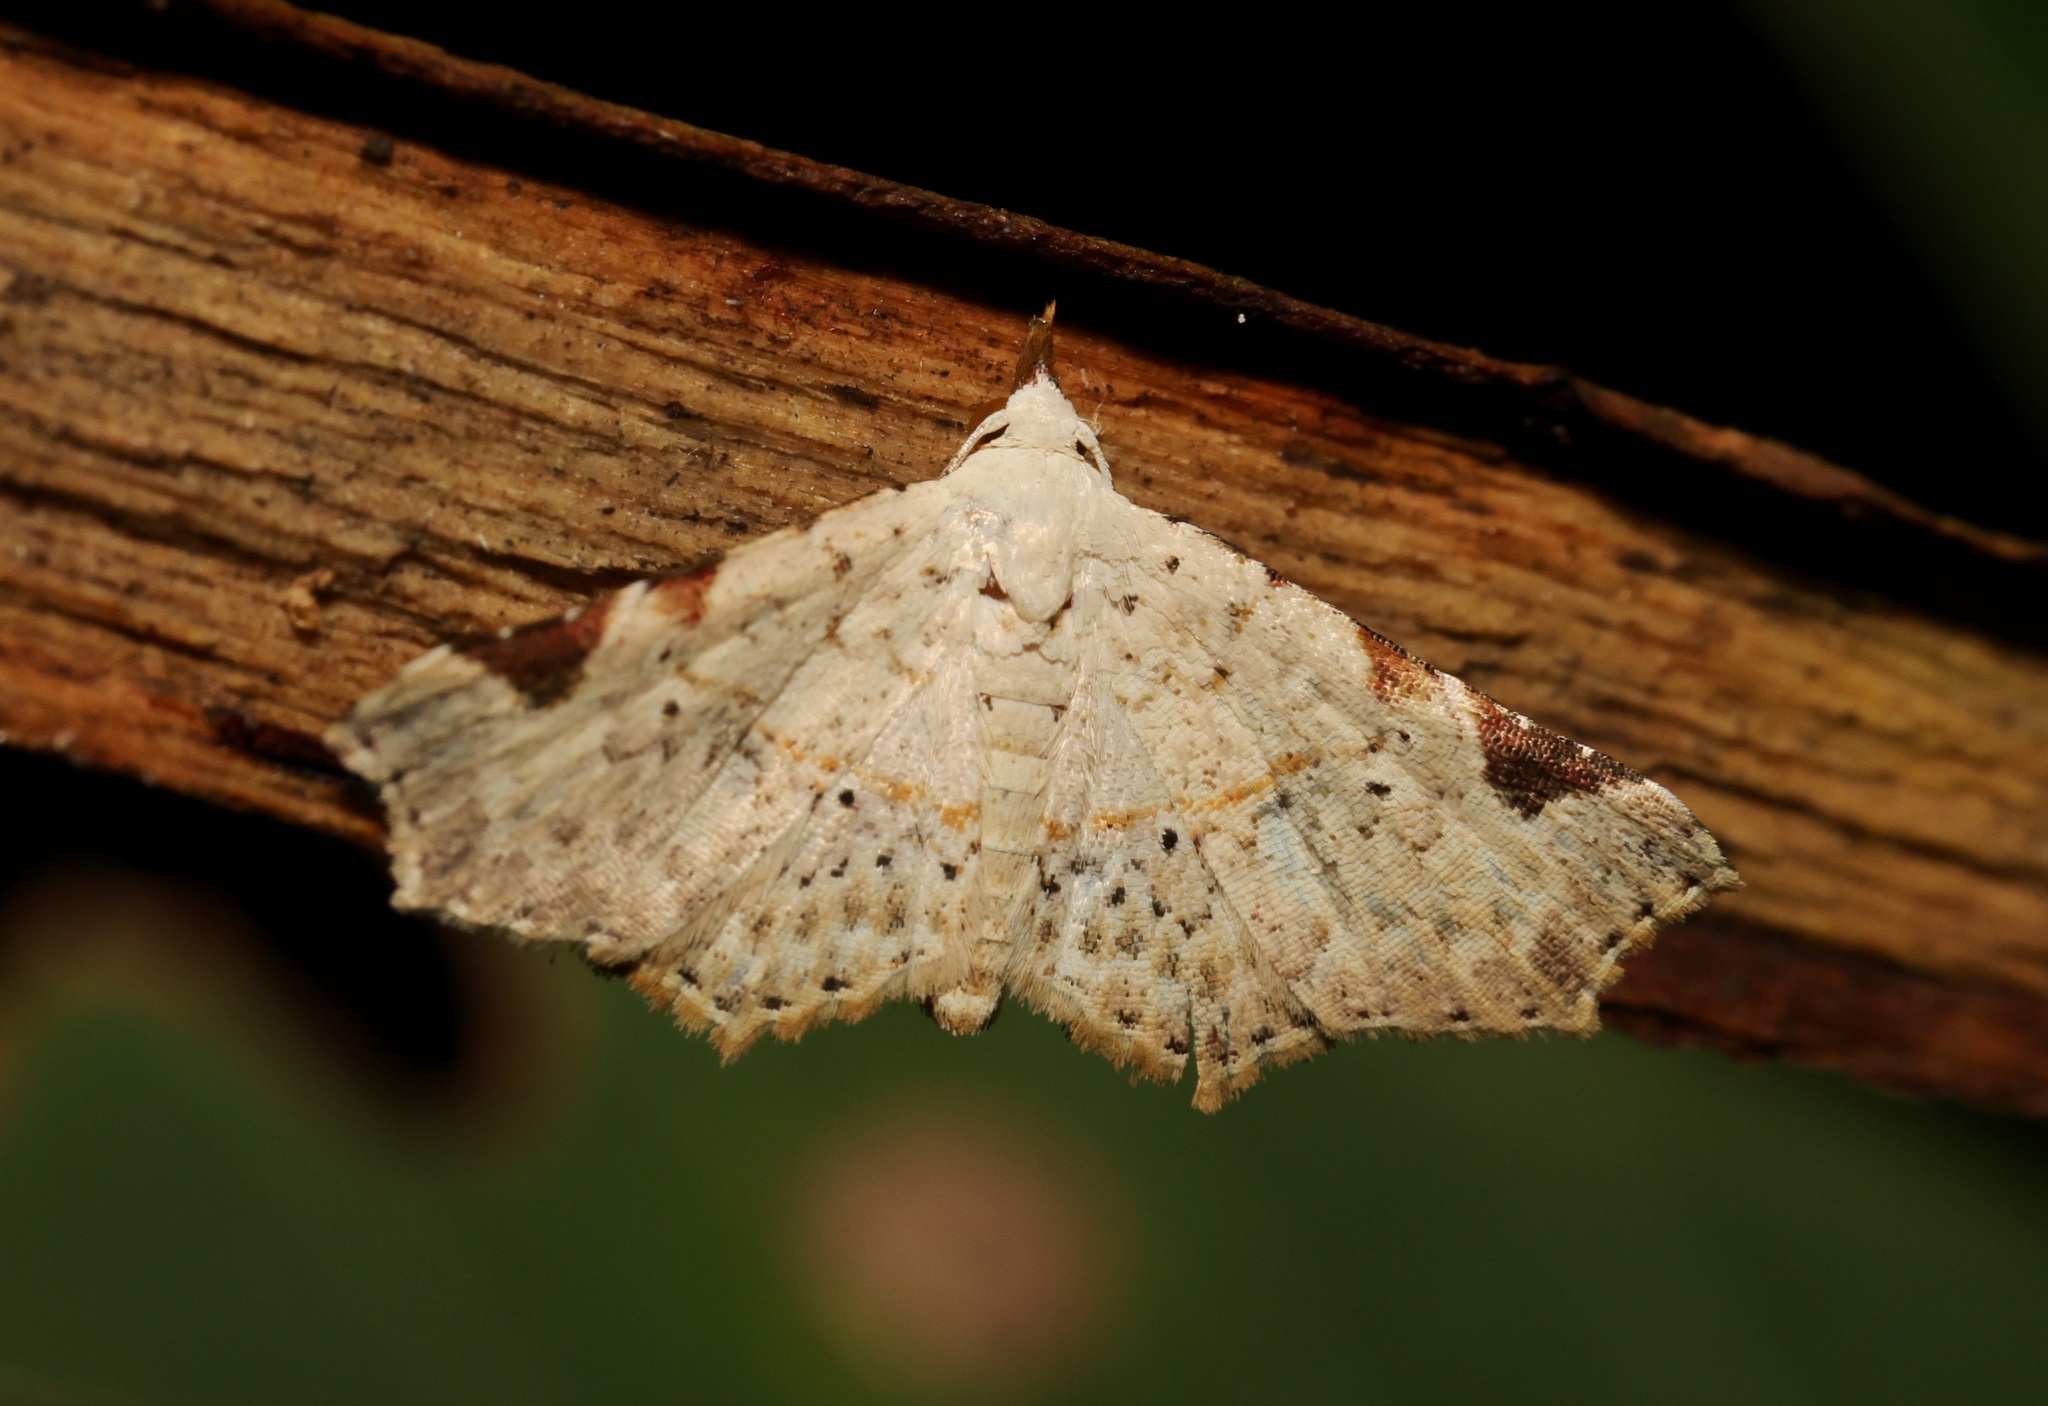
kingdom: Animalia
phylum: Arthropoda
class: Insecta
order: Lepidoptera
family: Erebidae
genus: Prolophota
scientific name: Prolophota trigonifera
